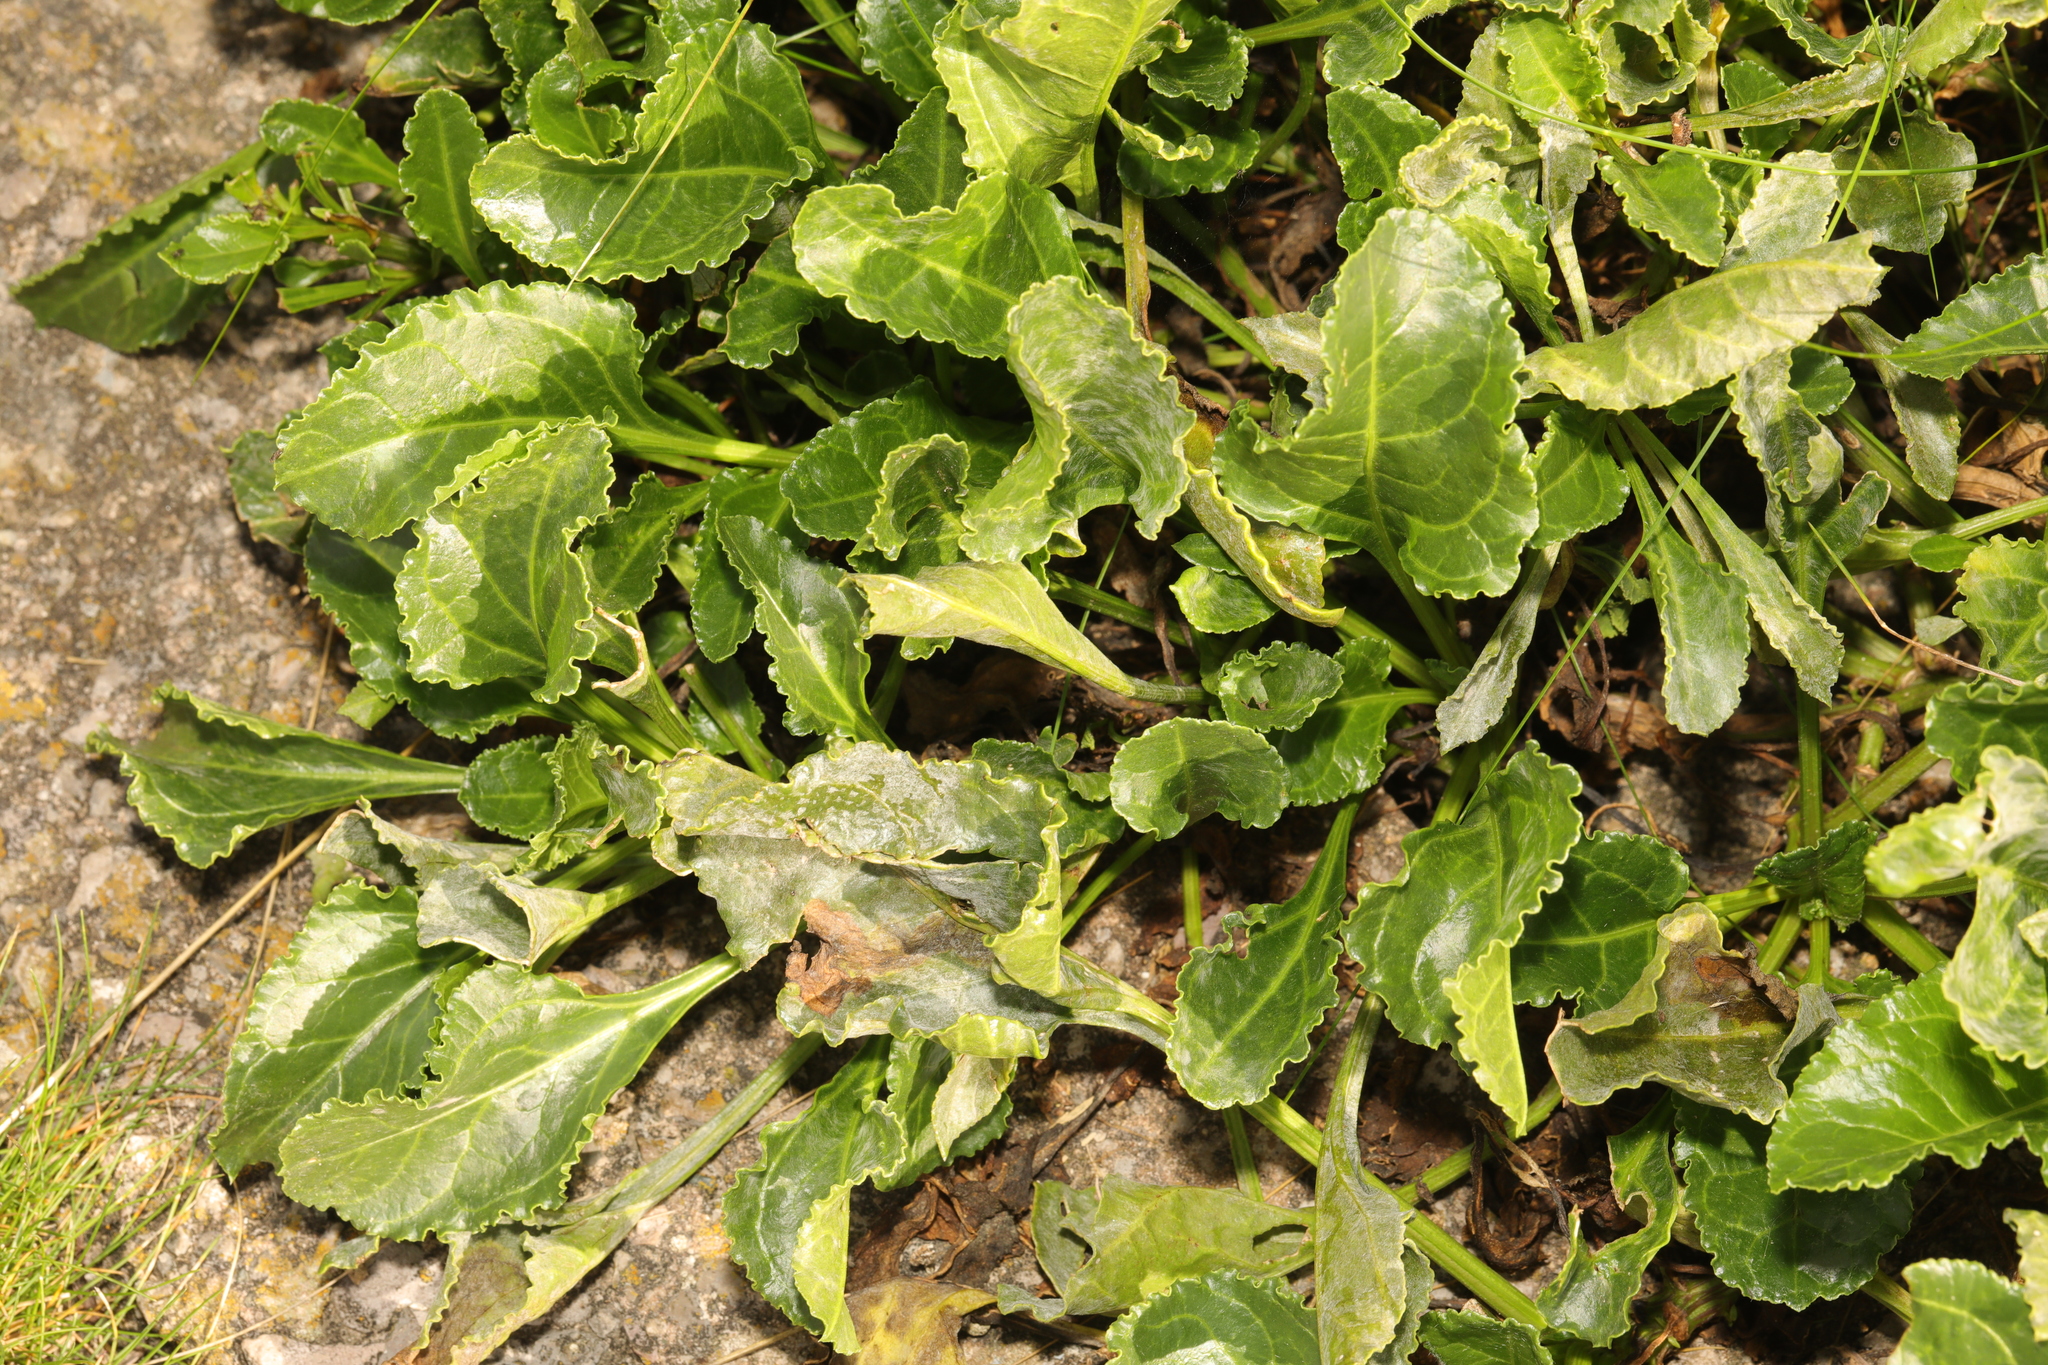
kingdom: Plantae
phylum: Tracheophyta
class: Magnoliopsida
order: Caryophyllales
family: Amaranthaceae
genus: Beta
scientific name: Beta vulgaris
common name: Beet
